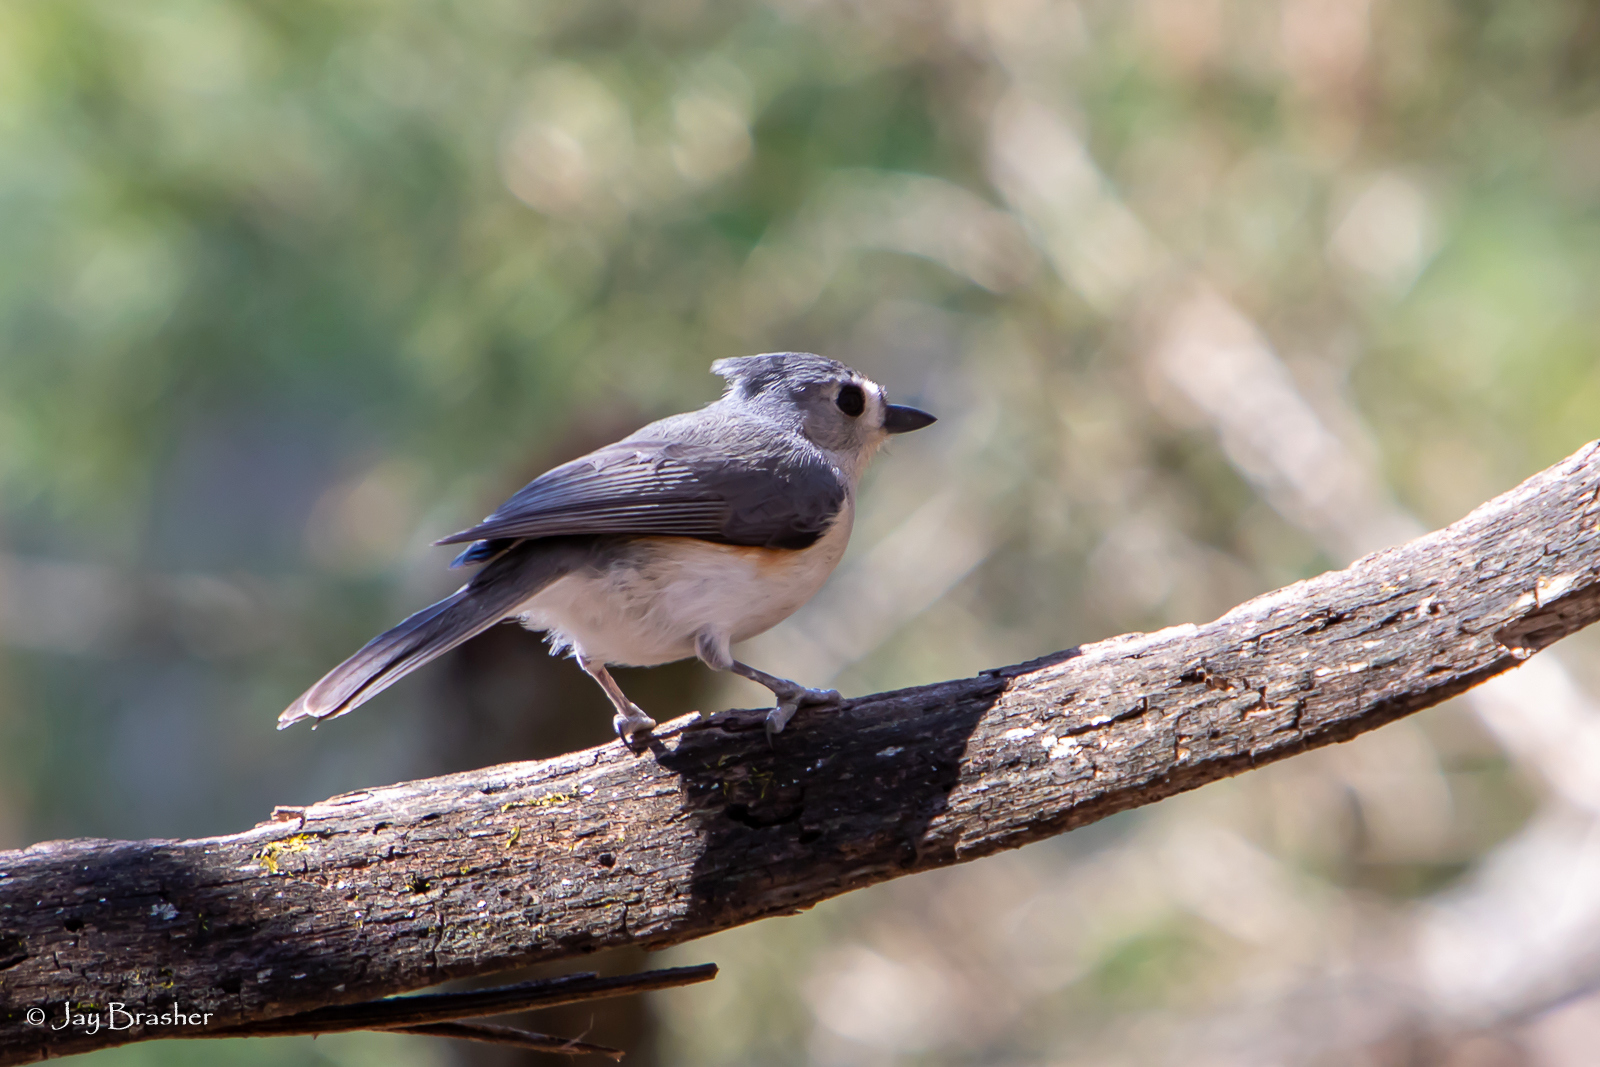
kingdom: Animalia
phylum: Chordata
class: Aves
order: Passeriformes
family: Paridae
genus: Baeolophus
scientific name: Baeolophus bicolor
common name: Tufted titmouse
